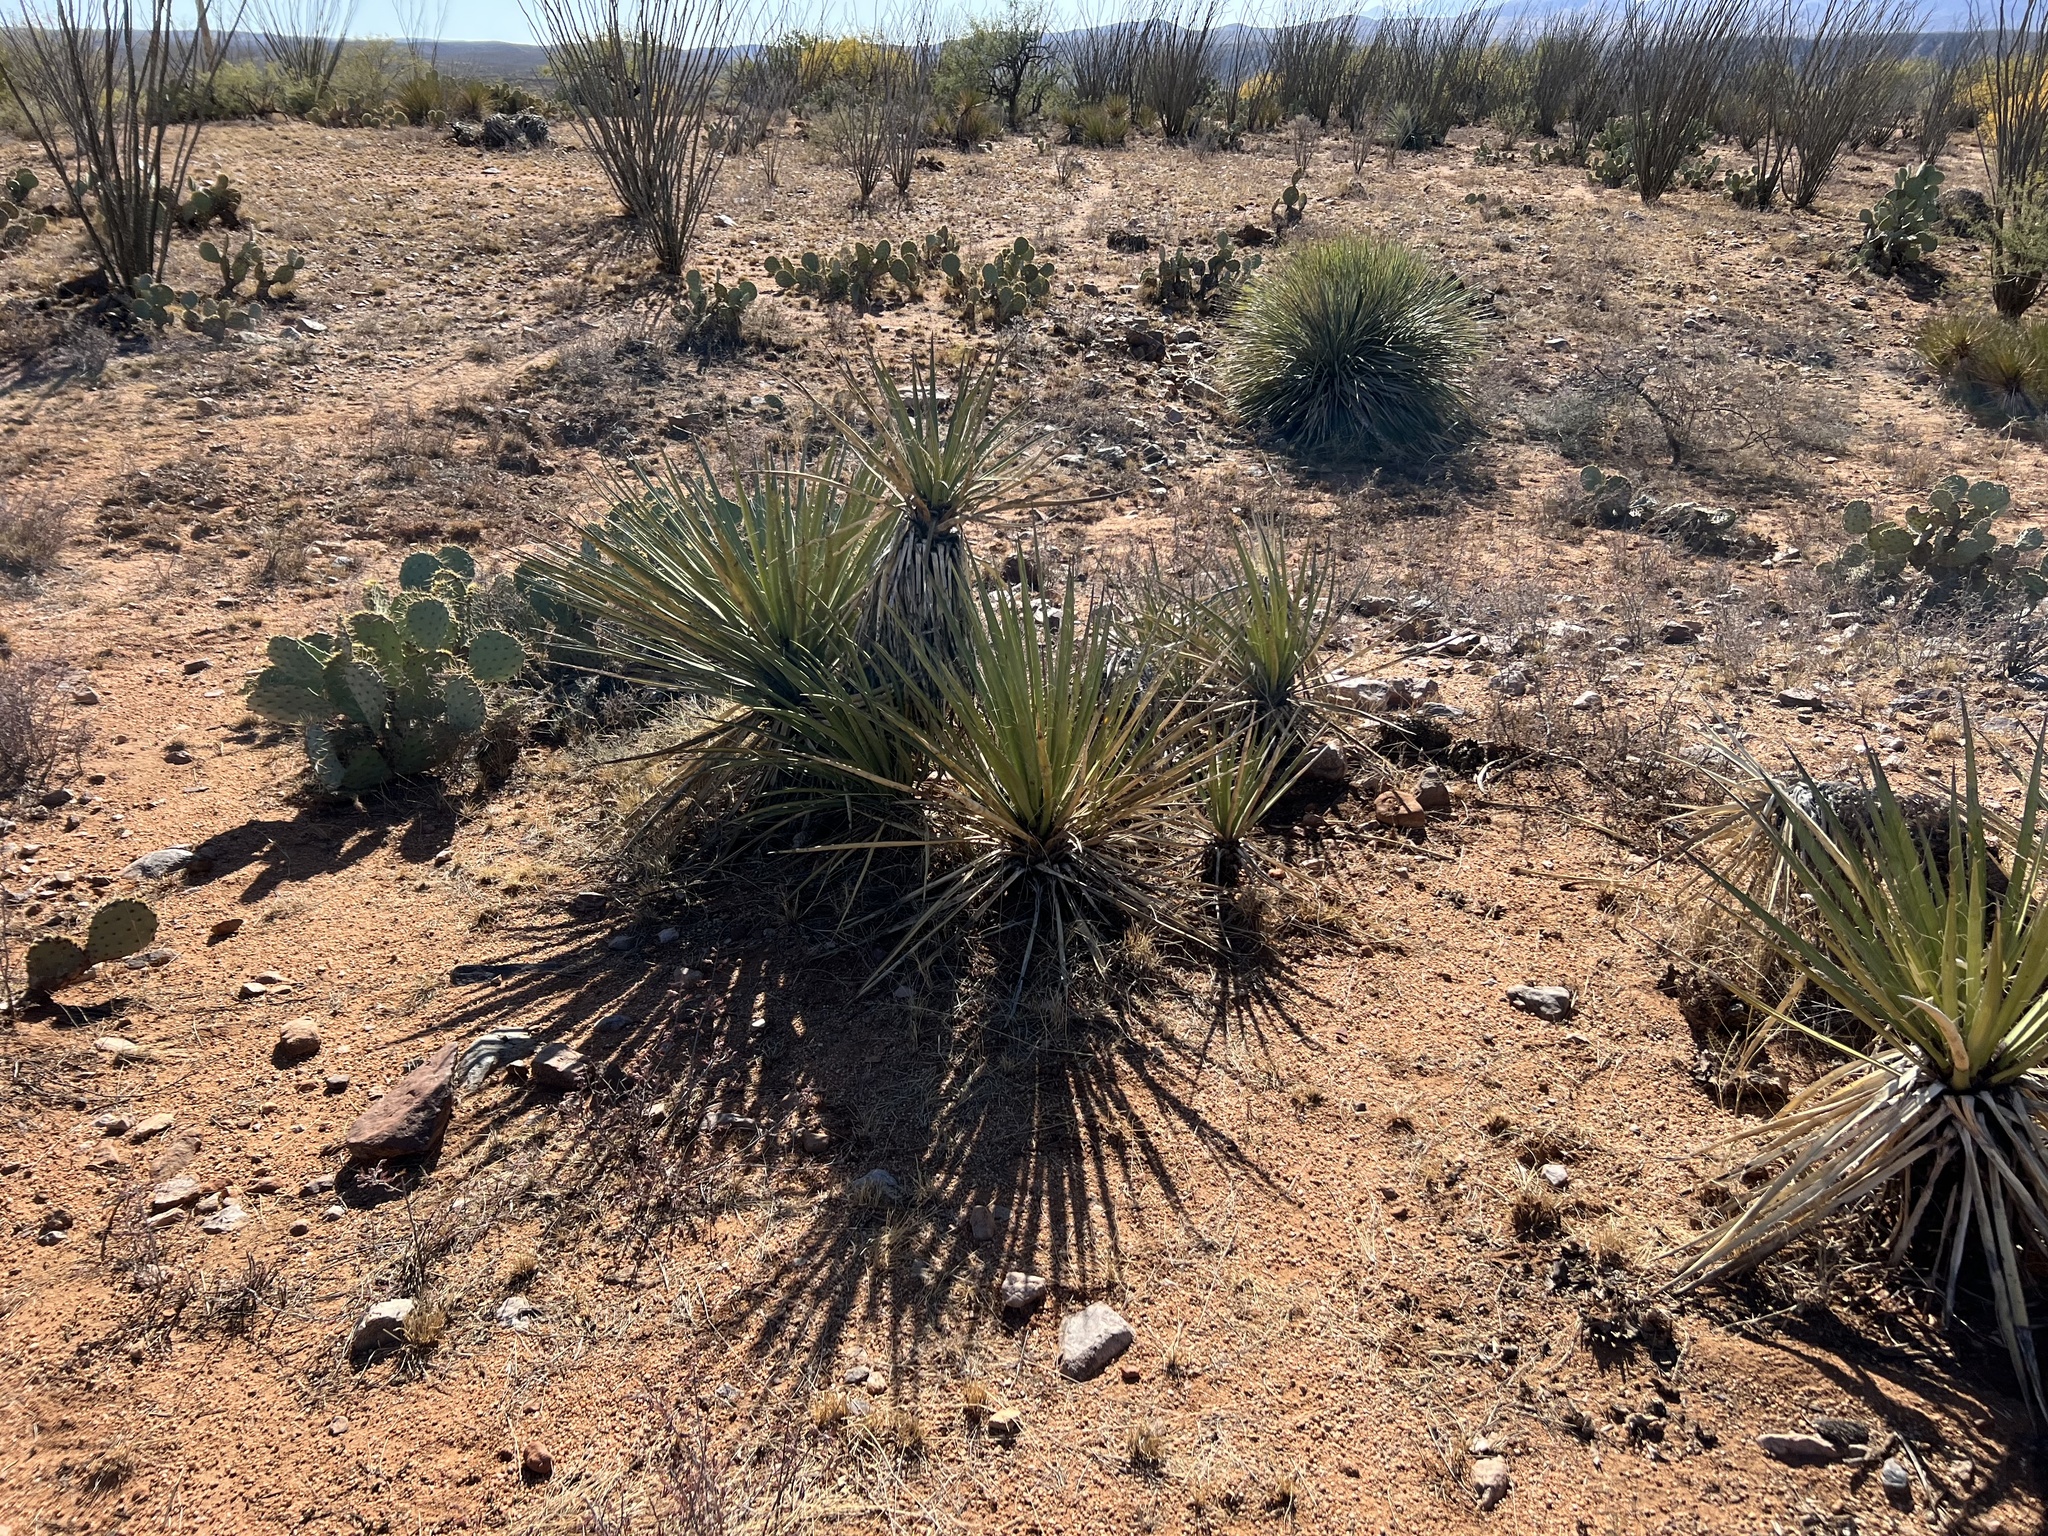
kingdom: Plantae
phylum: Tracheophyta
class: Liliopsida
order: Asparagales
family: Asparagaceae
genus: Yucca
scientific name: Yucca baccata
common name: Banana yucca
